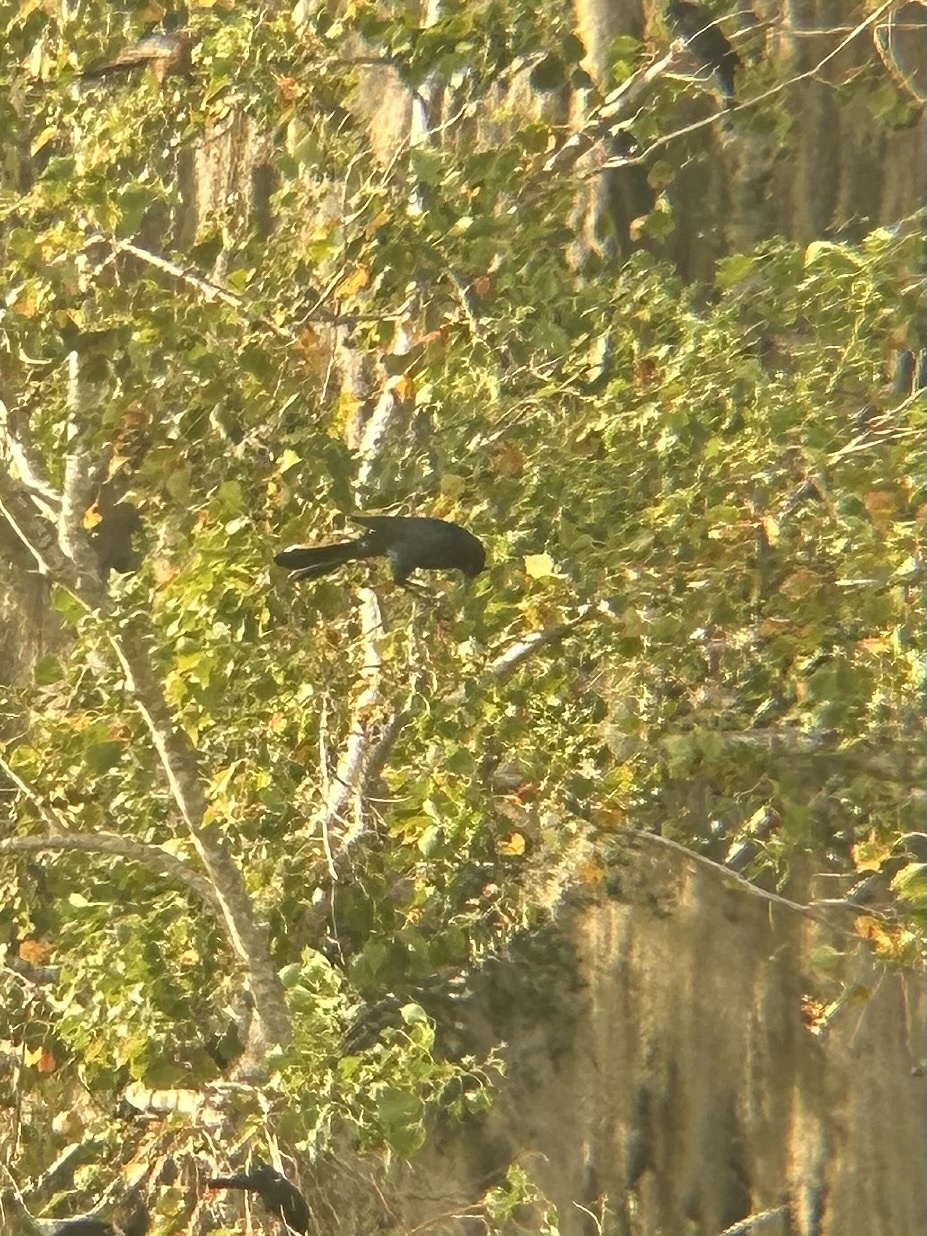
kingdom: Animalia
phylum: Chordata
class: Aves
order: Passeriformes
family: Icteridae
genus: Quiscalus
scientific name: Quiscalus major
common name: Boat-tailed grackle
